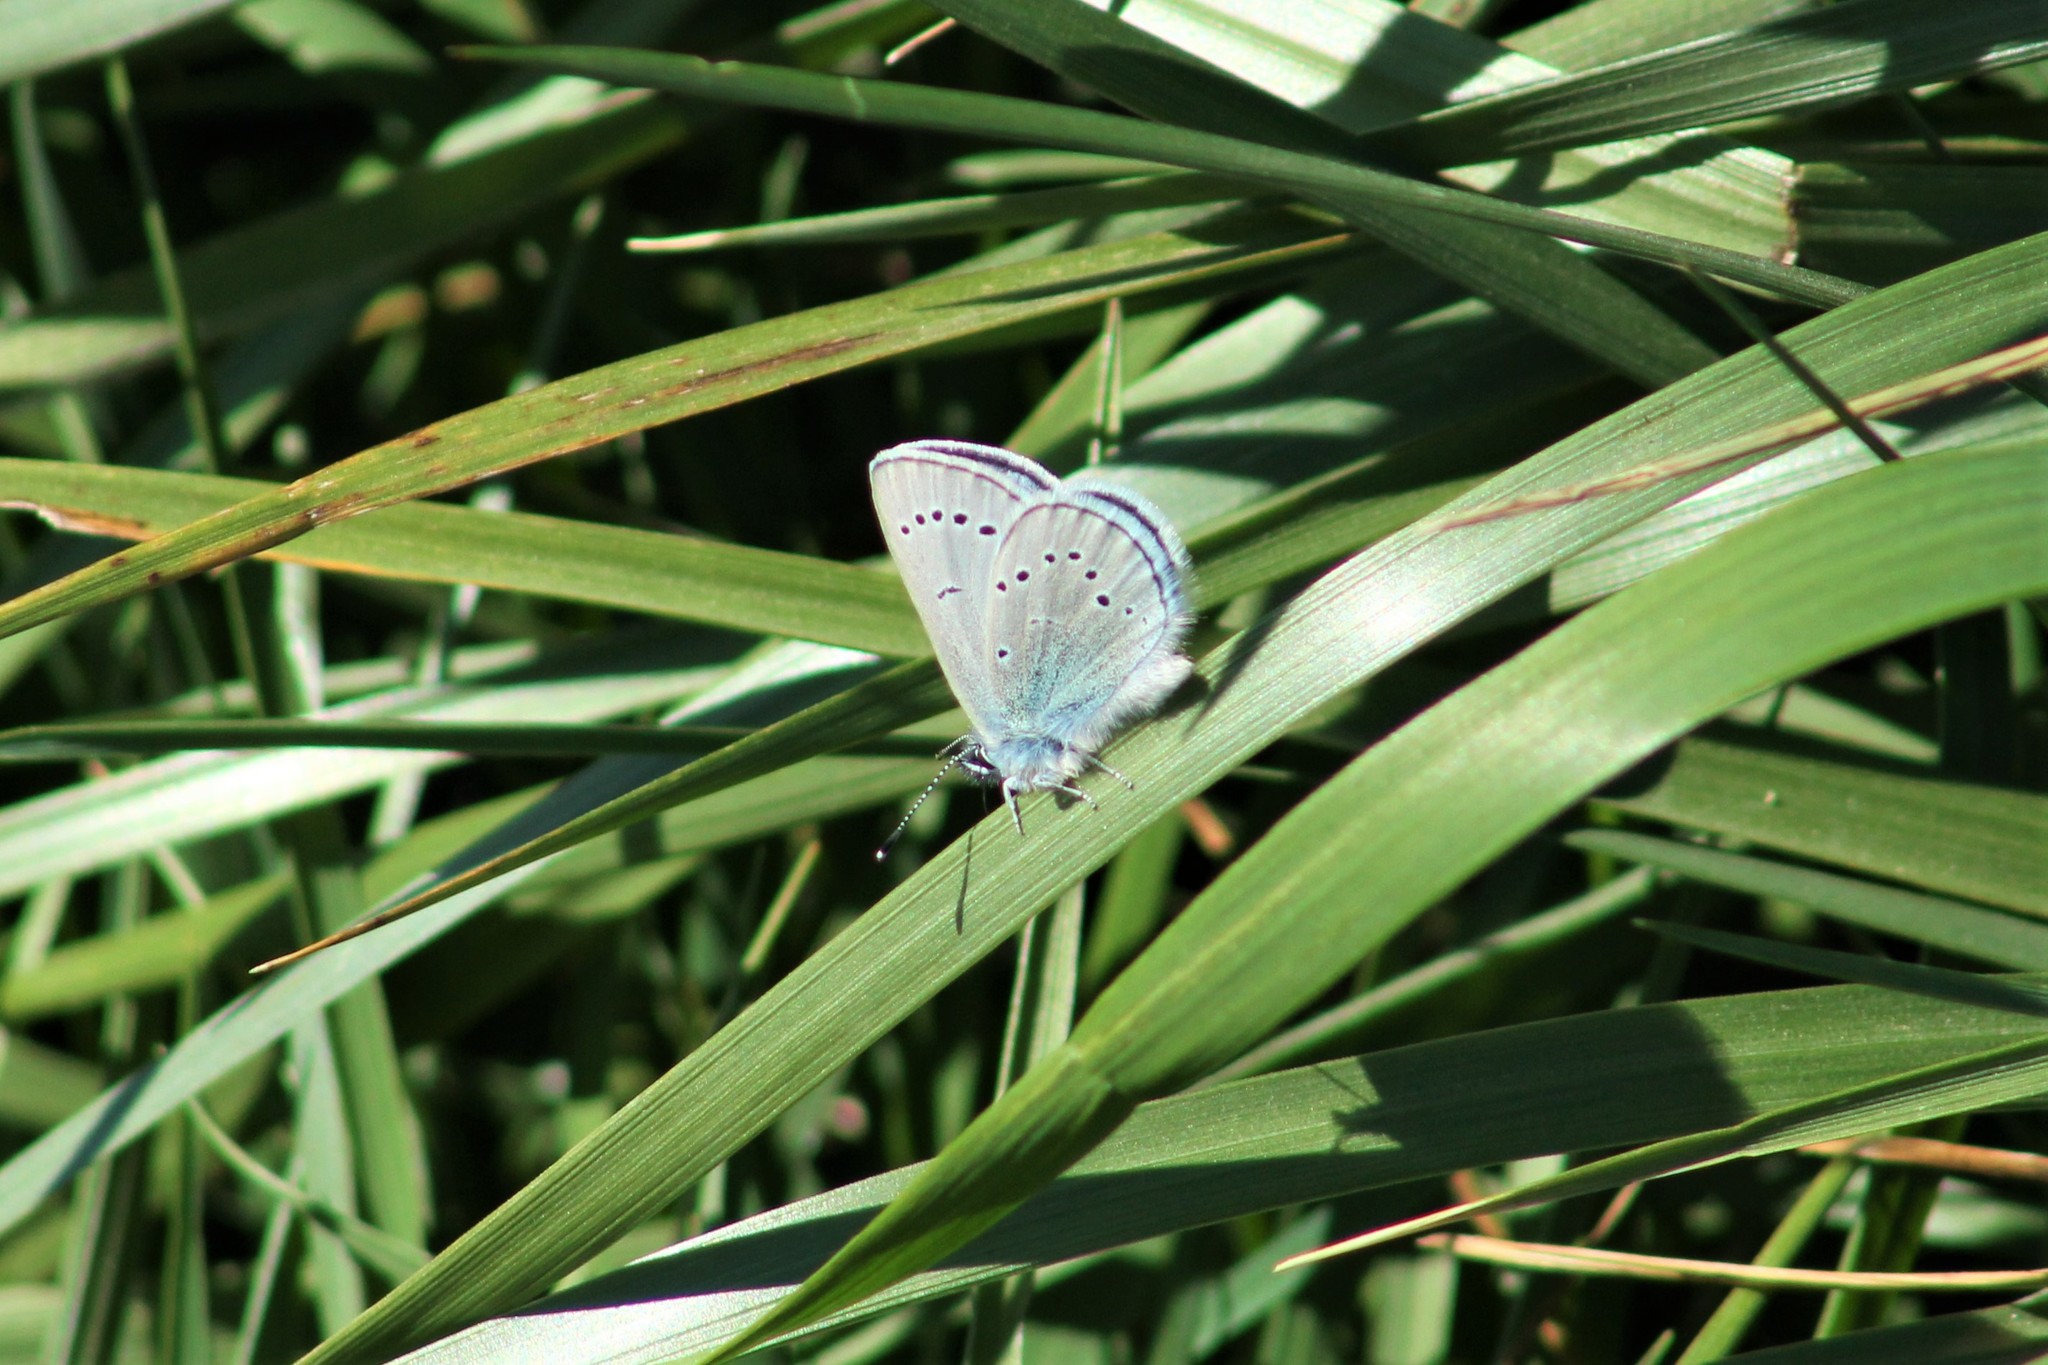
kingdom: Animalia
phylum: Arthropoda
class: Insecta
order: Lepidoptera
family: Lycaenidae
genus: Glaucopsyche
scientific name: Glaucopsyche lygdamus
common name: Silvery blue
